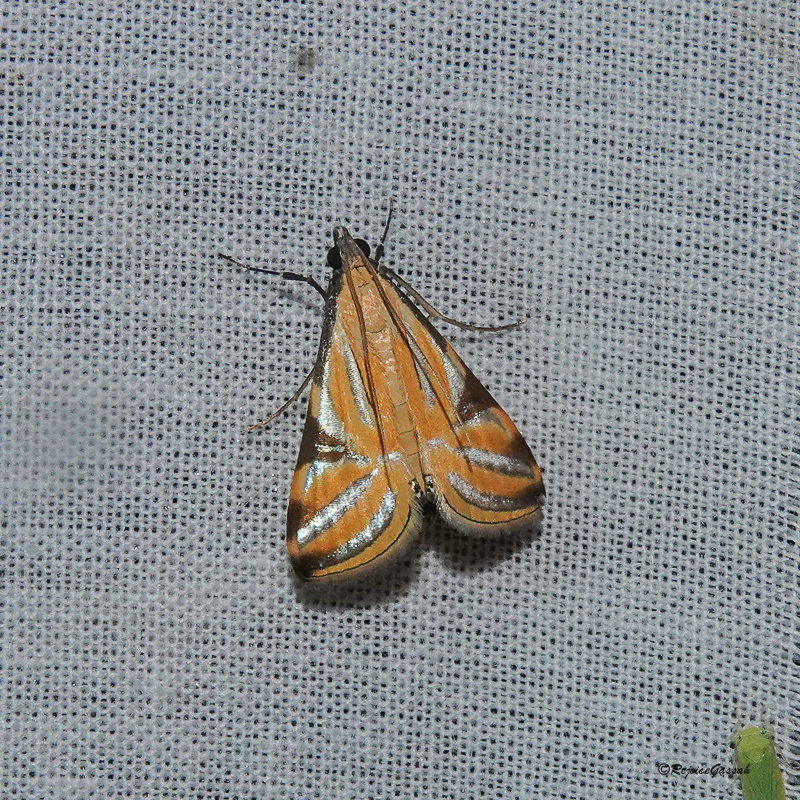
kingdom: Animalia
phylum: Arthropoda
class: Insecta
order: Lepidoptera
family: Crambidae
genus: Talanga
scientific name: Talanga sexpunctalis
